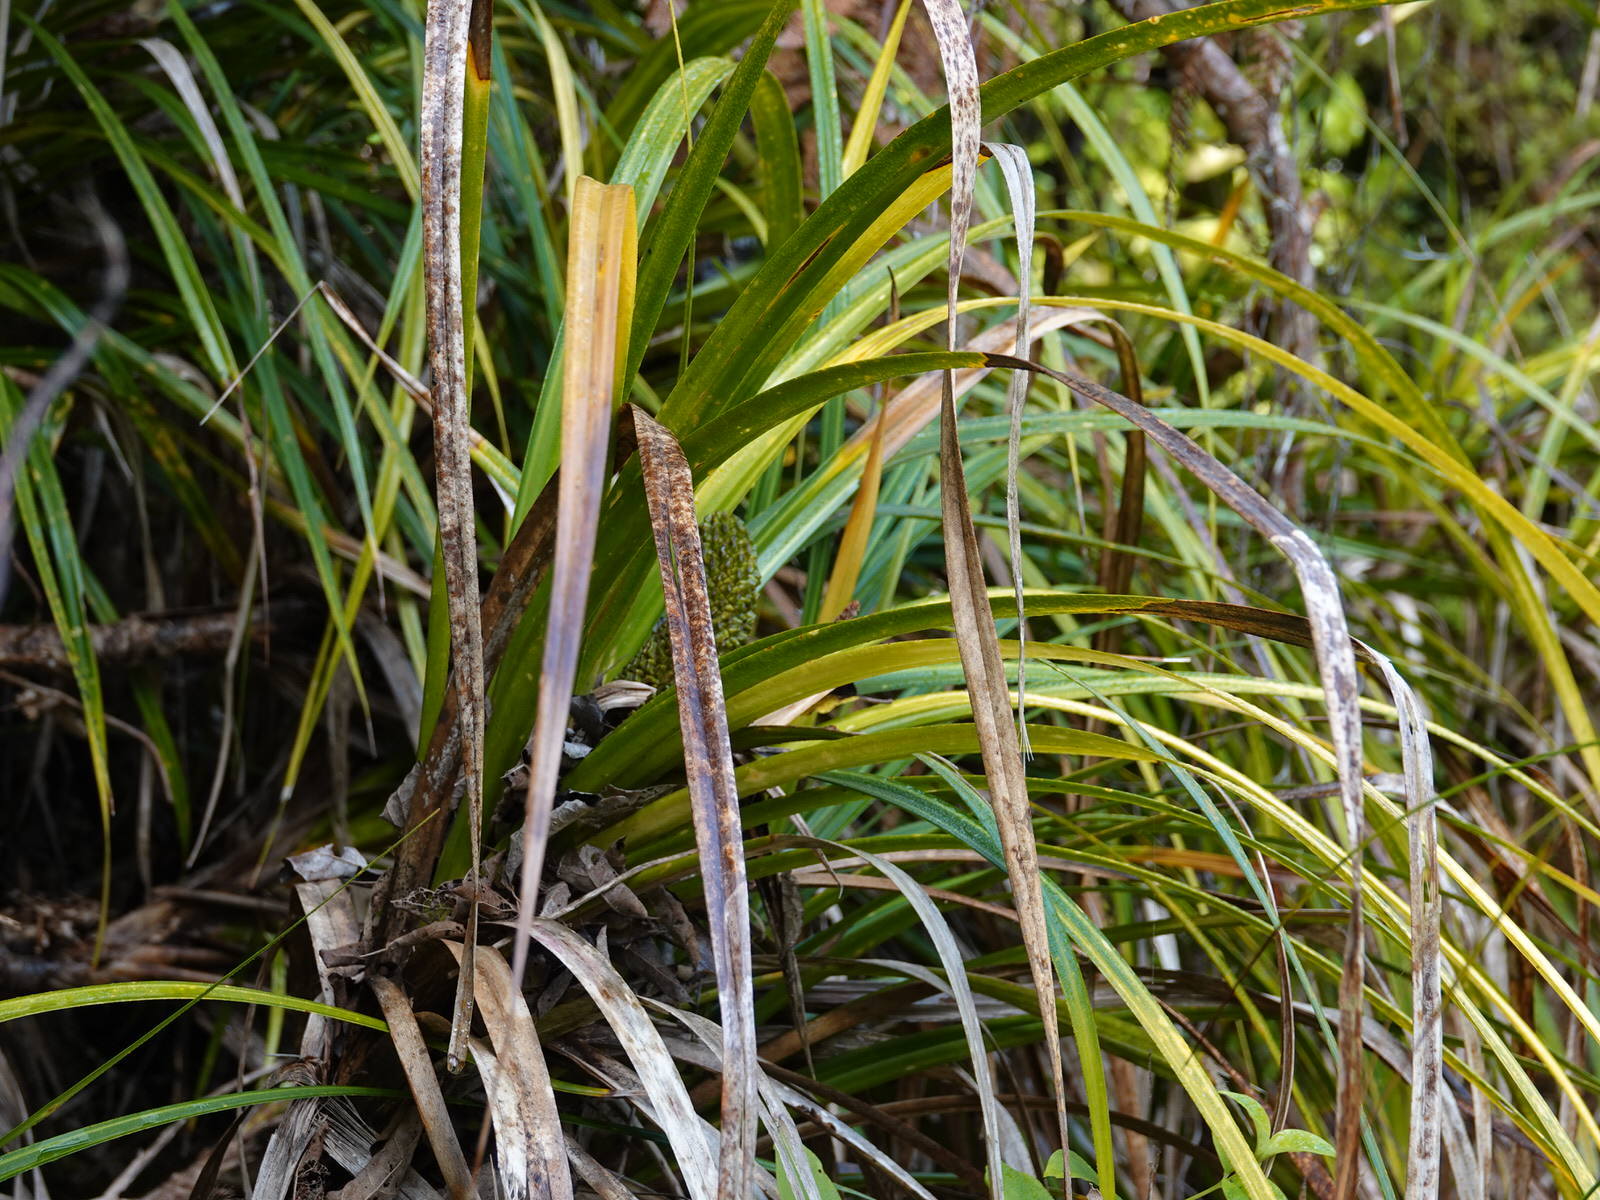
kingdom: Plantae
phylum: Tracheophyta
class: Liliopsida
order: Pandanales
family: Pandanaceae
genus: Freycinetia
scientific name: Freycinetia banksii
